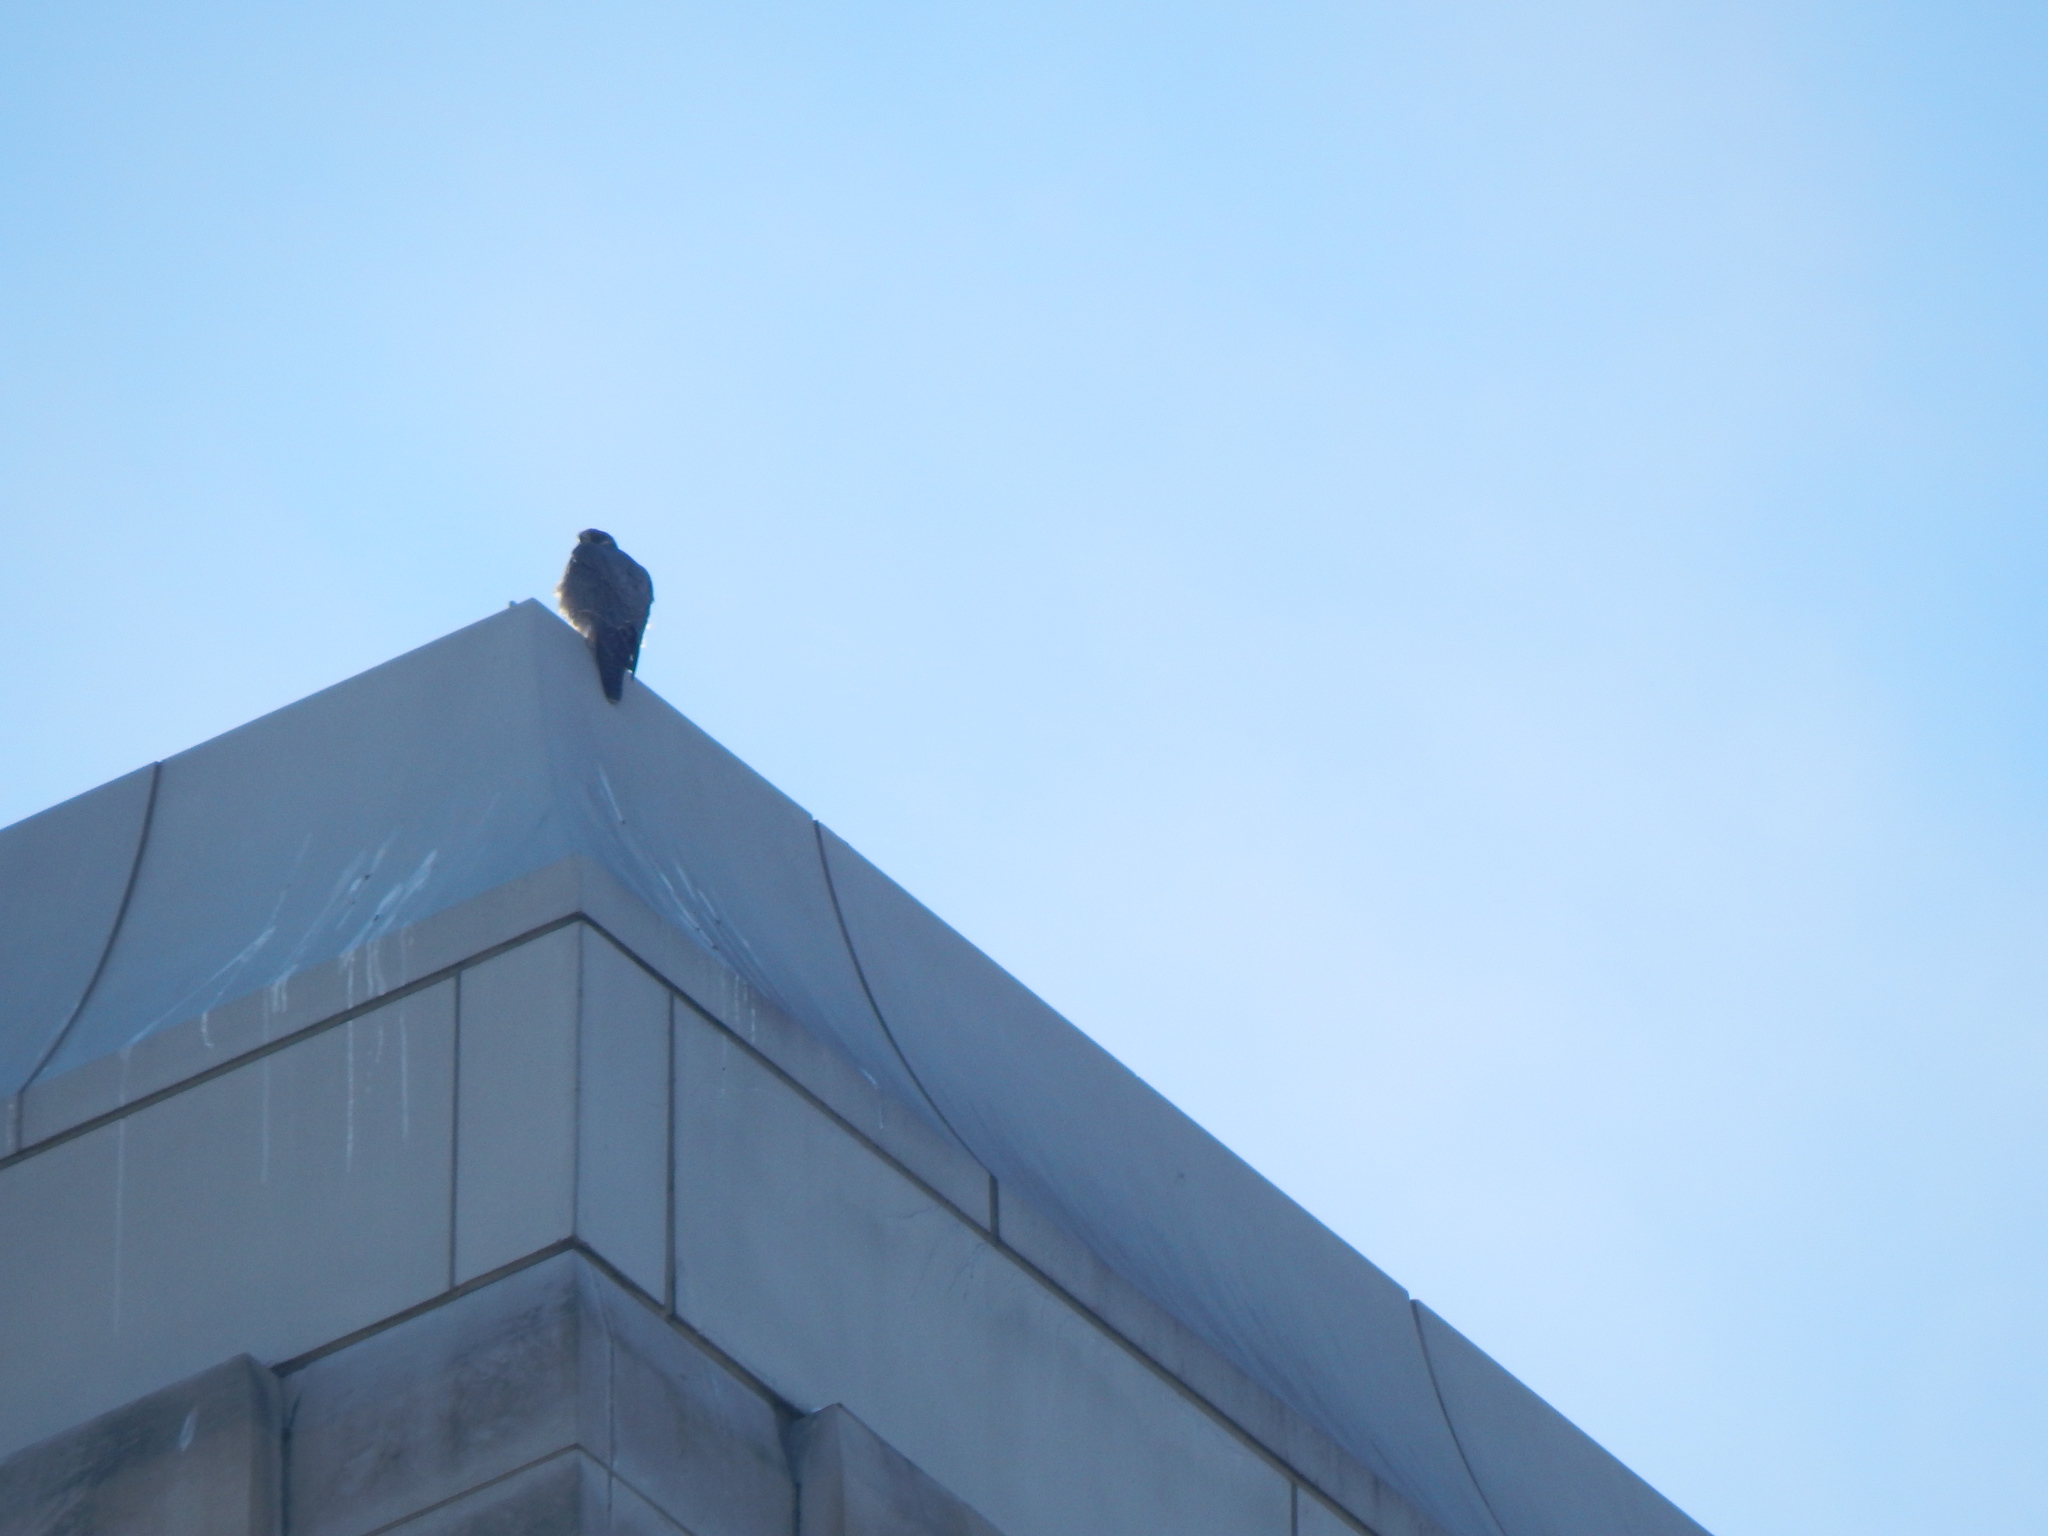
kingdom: Animalia
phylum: Chordata
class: Aves
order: Falconiformes
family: Falconidae
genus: Falco
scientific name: Falco peregrinus
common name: Peregrine falcon
